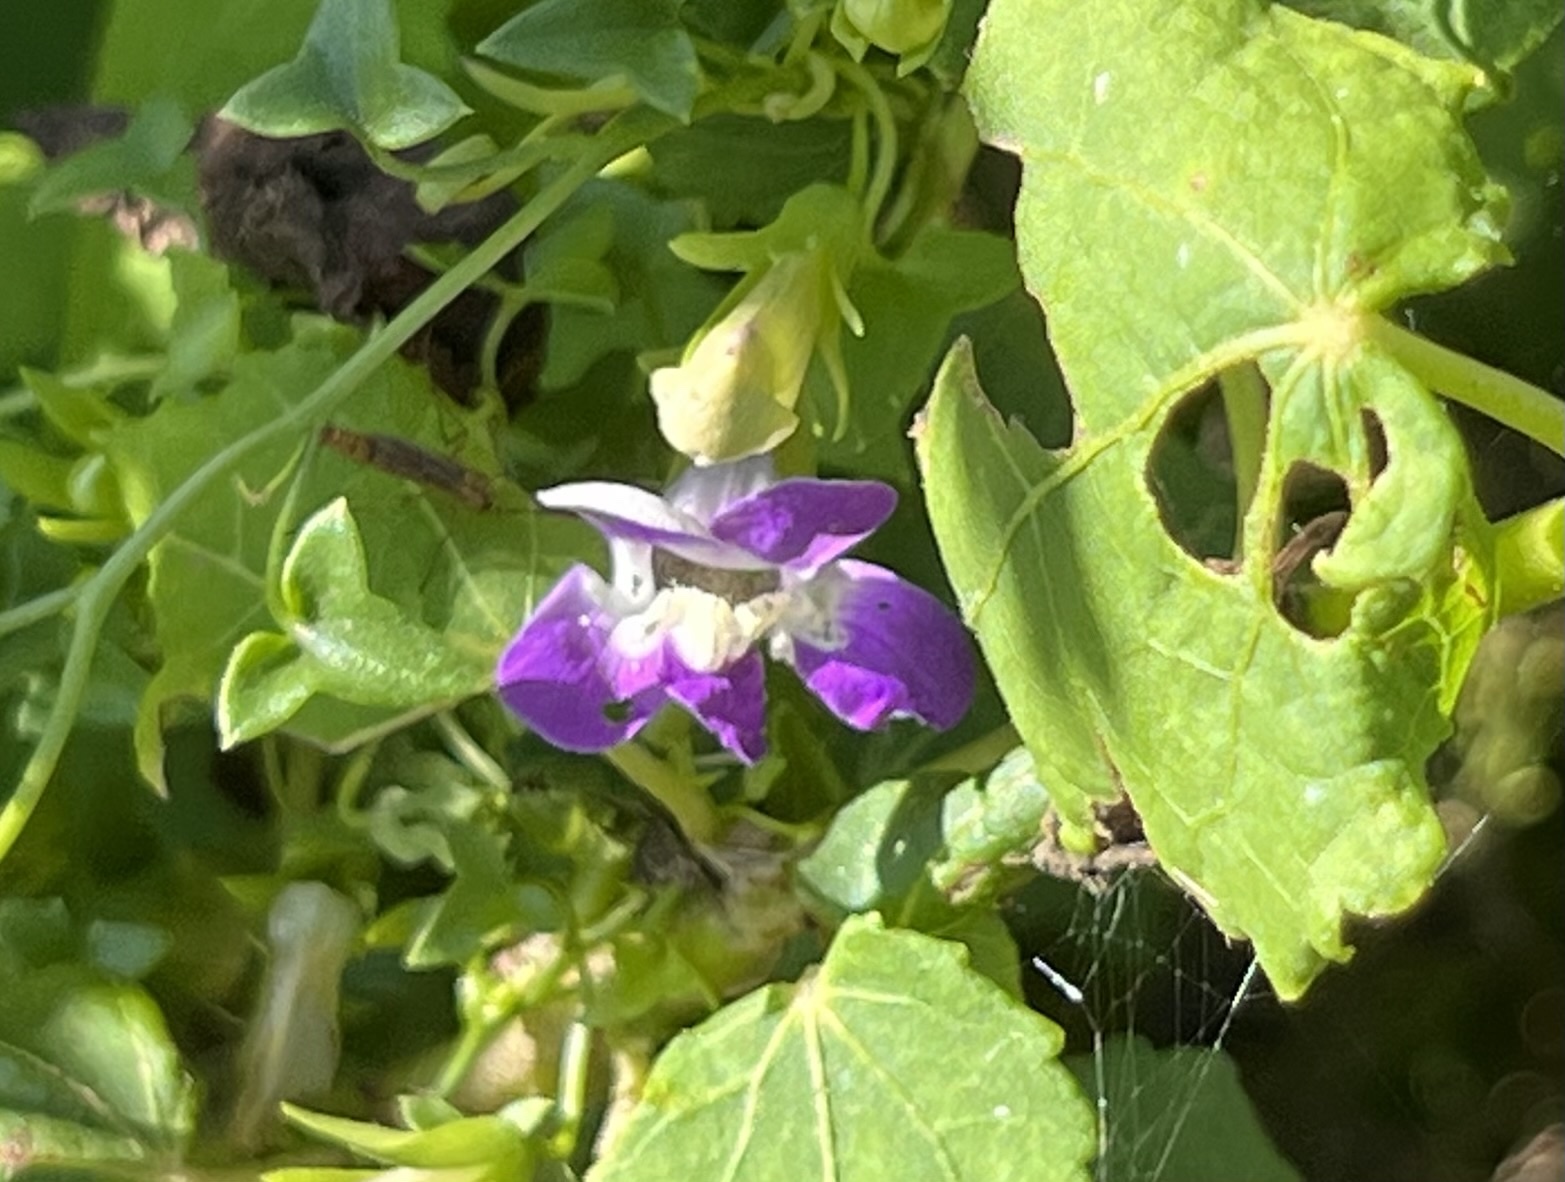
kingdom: Plantae
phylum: Tracheophyta
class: Magnoliopsida
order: Lamiales
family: Plantaginaceae
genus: Maurandella
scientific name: Maurandella antirrhiniflora
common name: Violet twining-snapdragon
